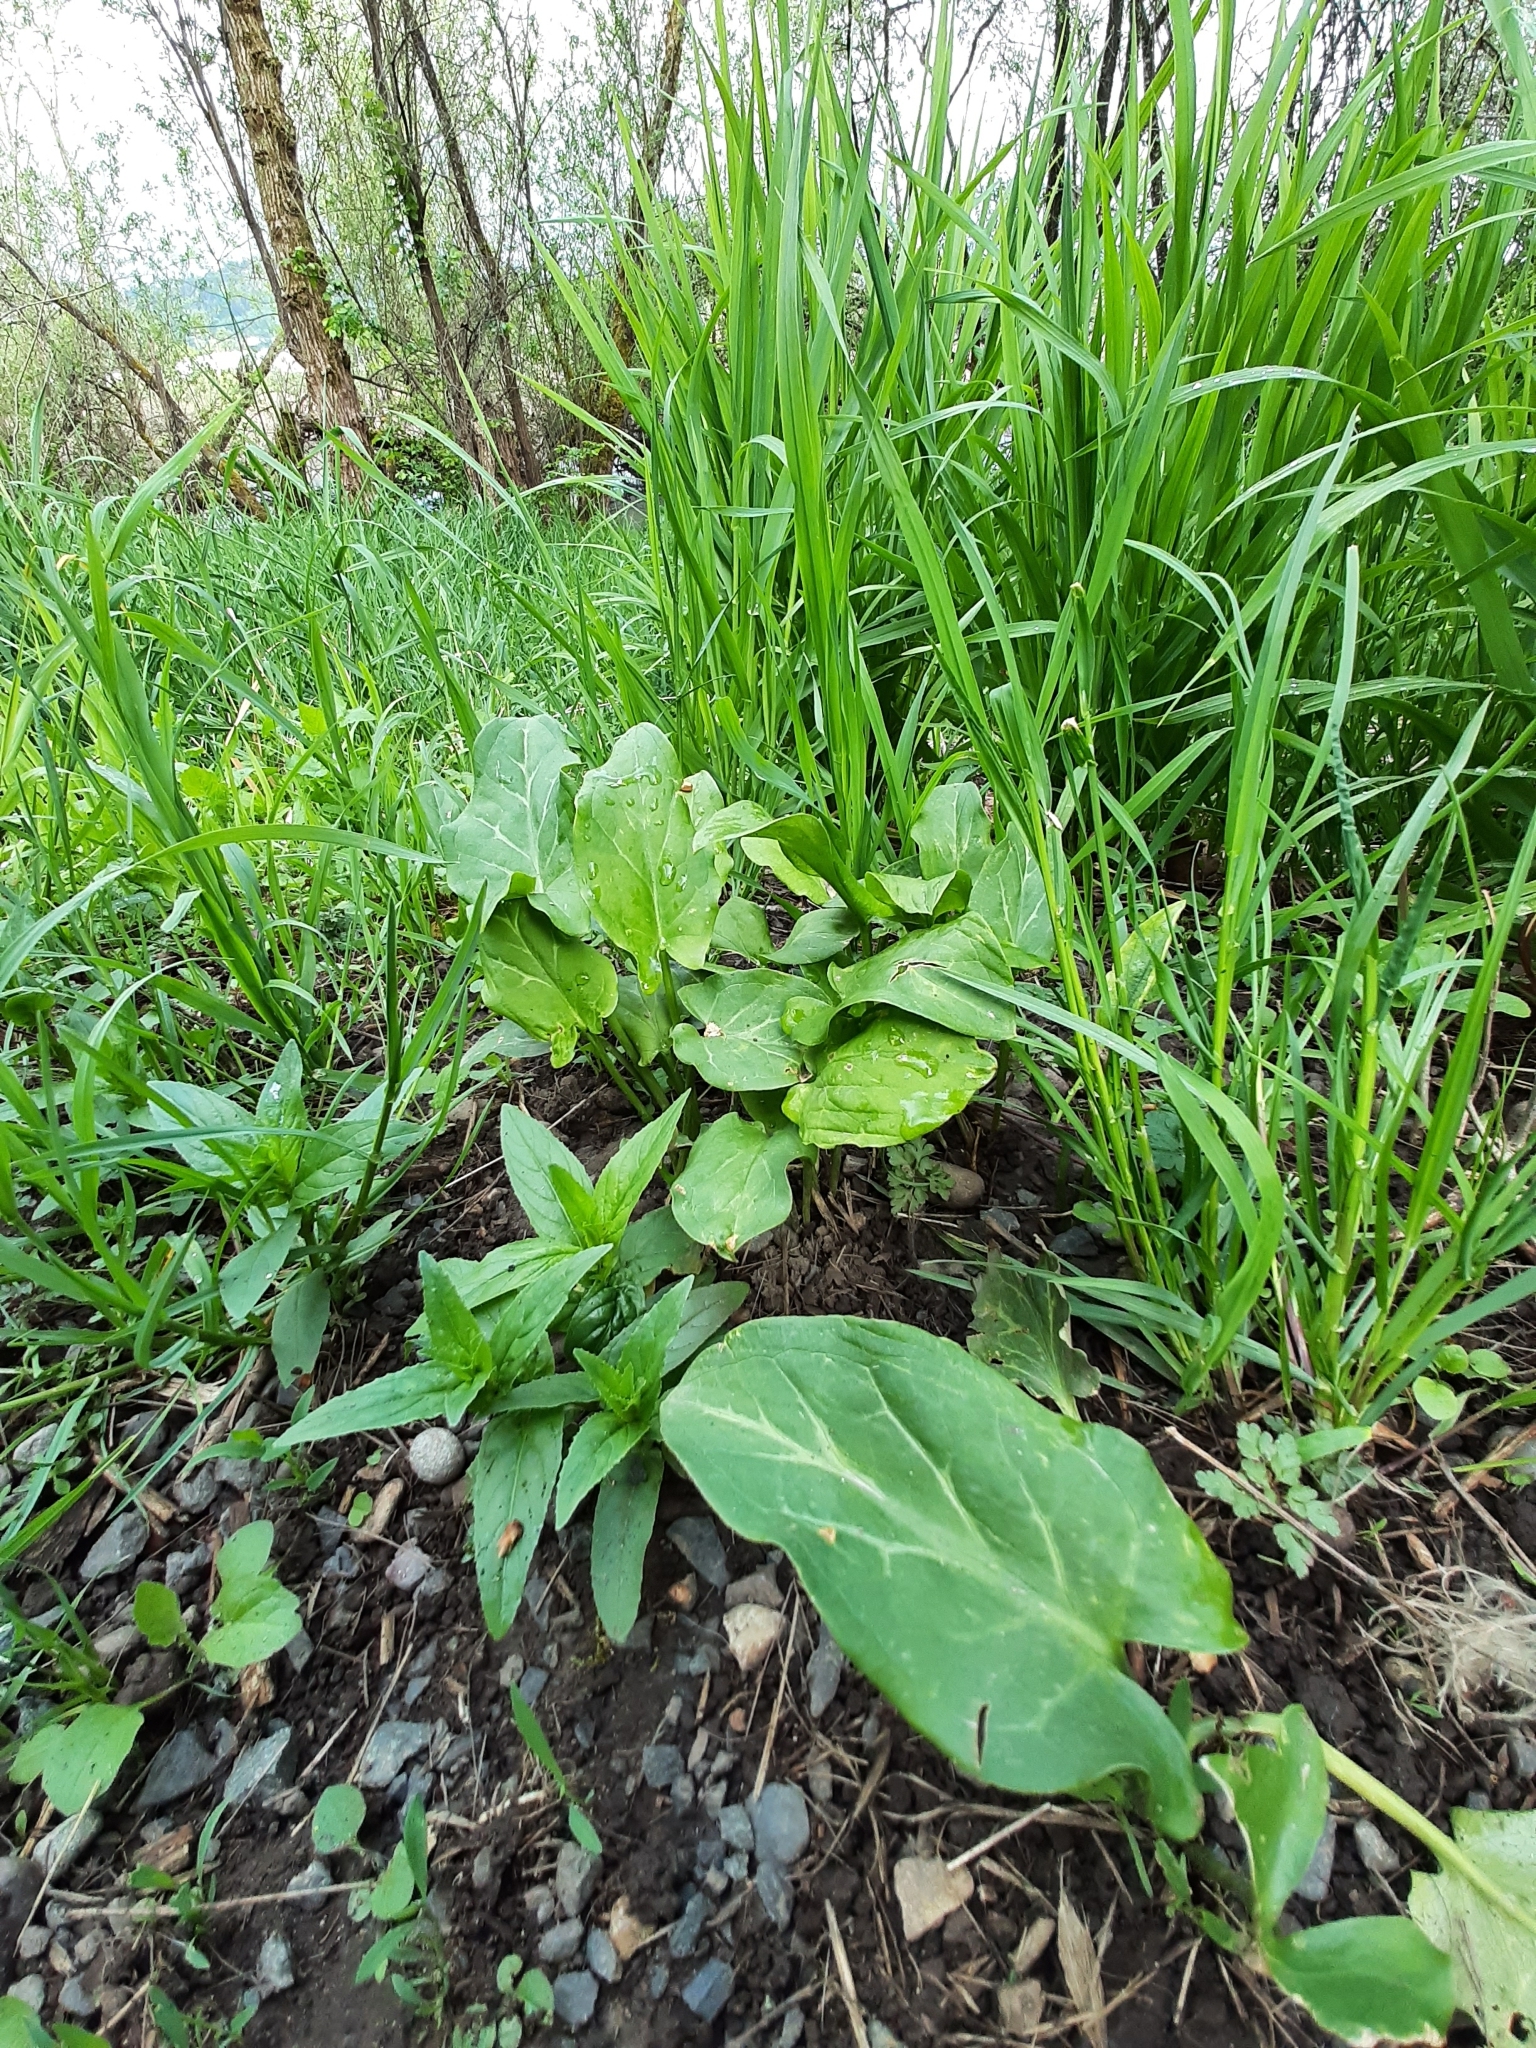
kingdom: Plantae
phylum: Tracheophyta
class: Liliopsida
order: Alismatales
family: Araceae
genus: Arum
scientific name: Arum italicum
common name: Italian lords-and-ladies
